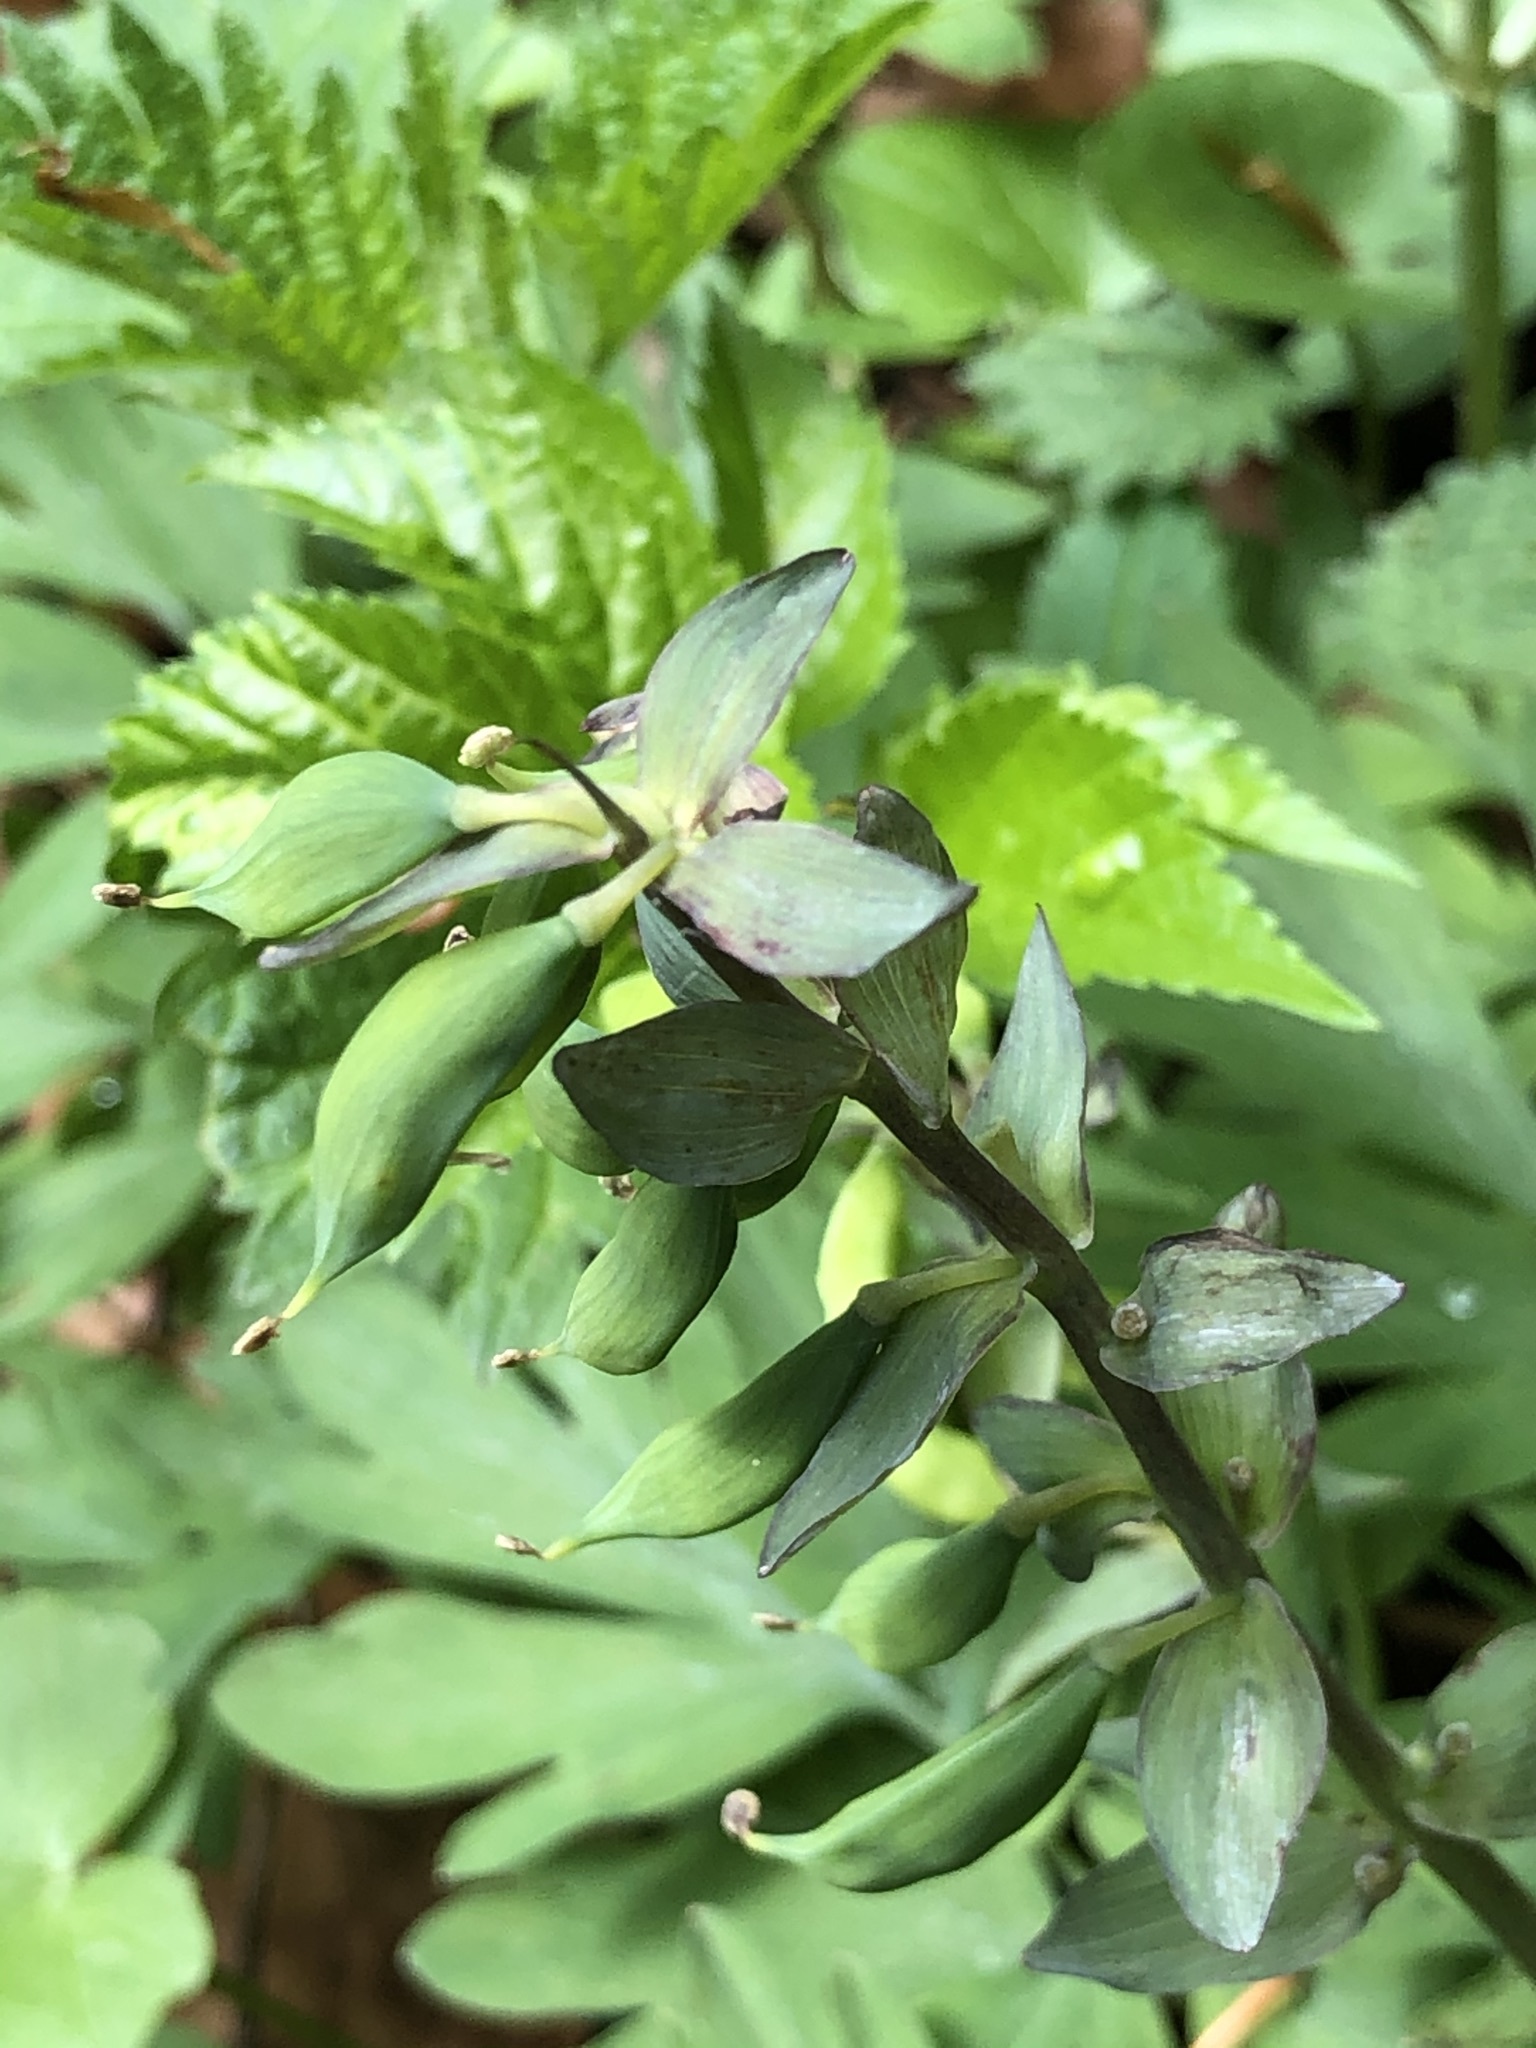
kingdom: Plantae
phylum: Tracheophyta
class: Magnoliopsida
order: Ranunculales
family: Papaveraceae
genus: Corydalis
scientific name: Corydalis cava
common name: Hollowroot
